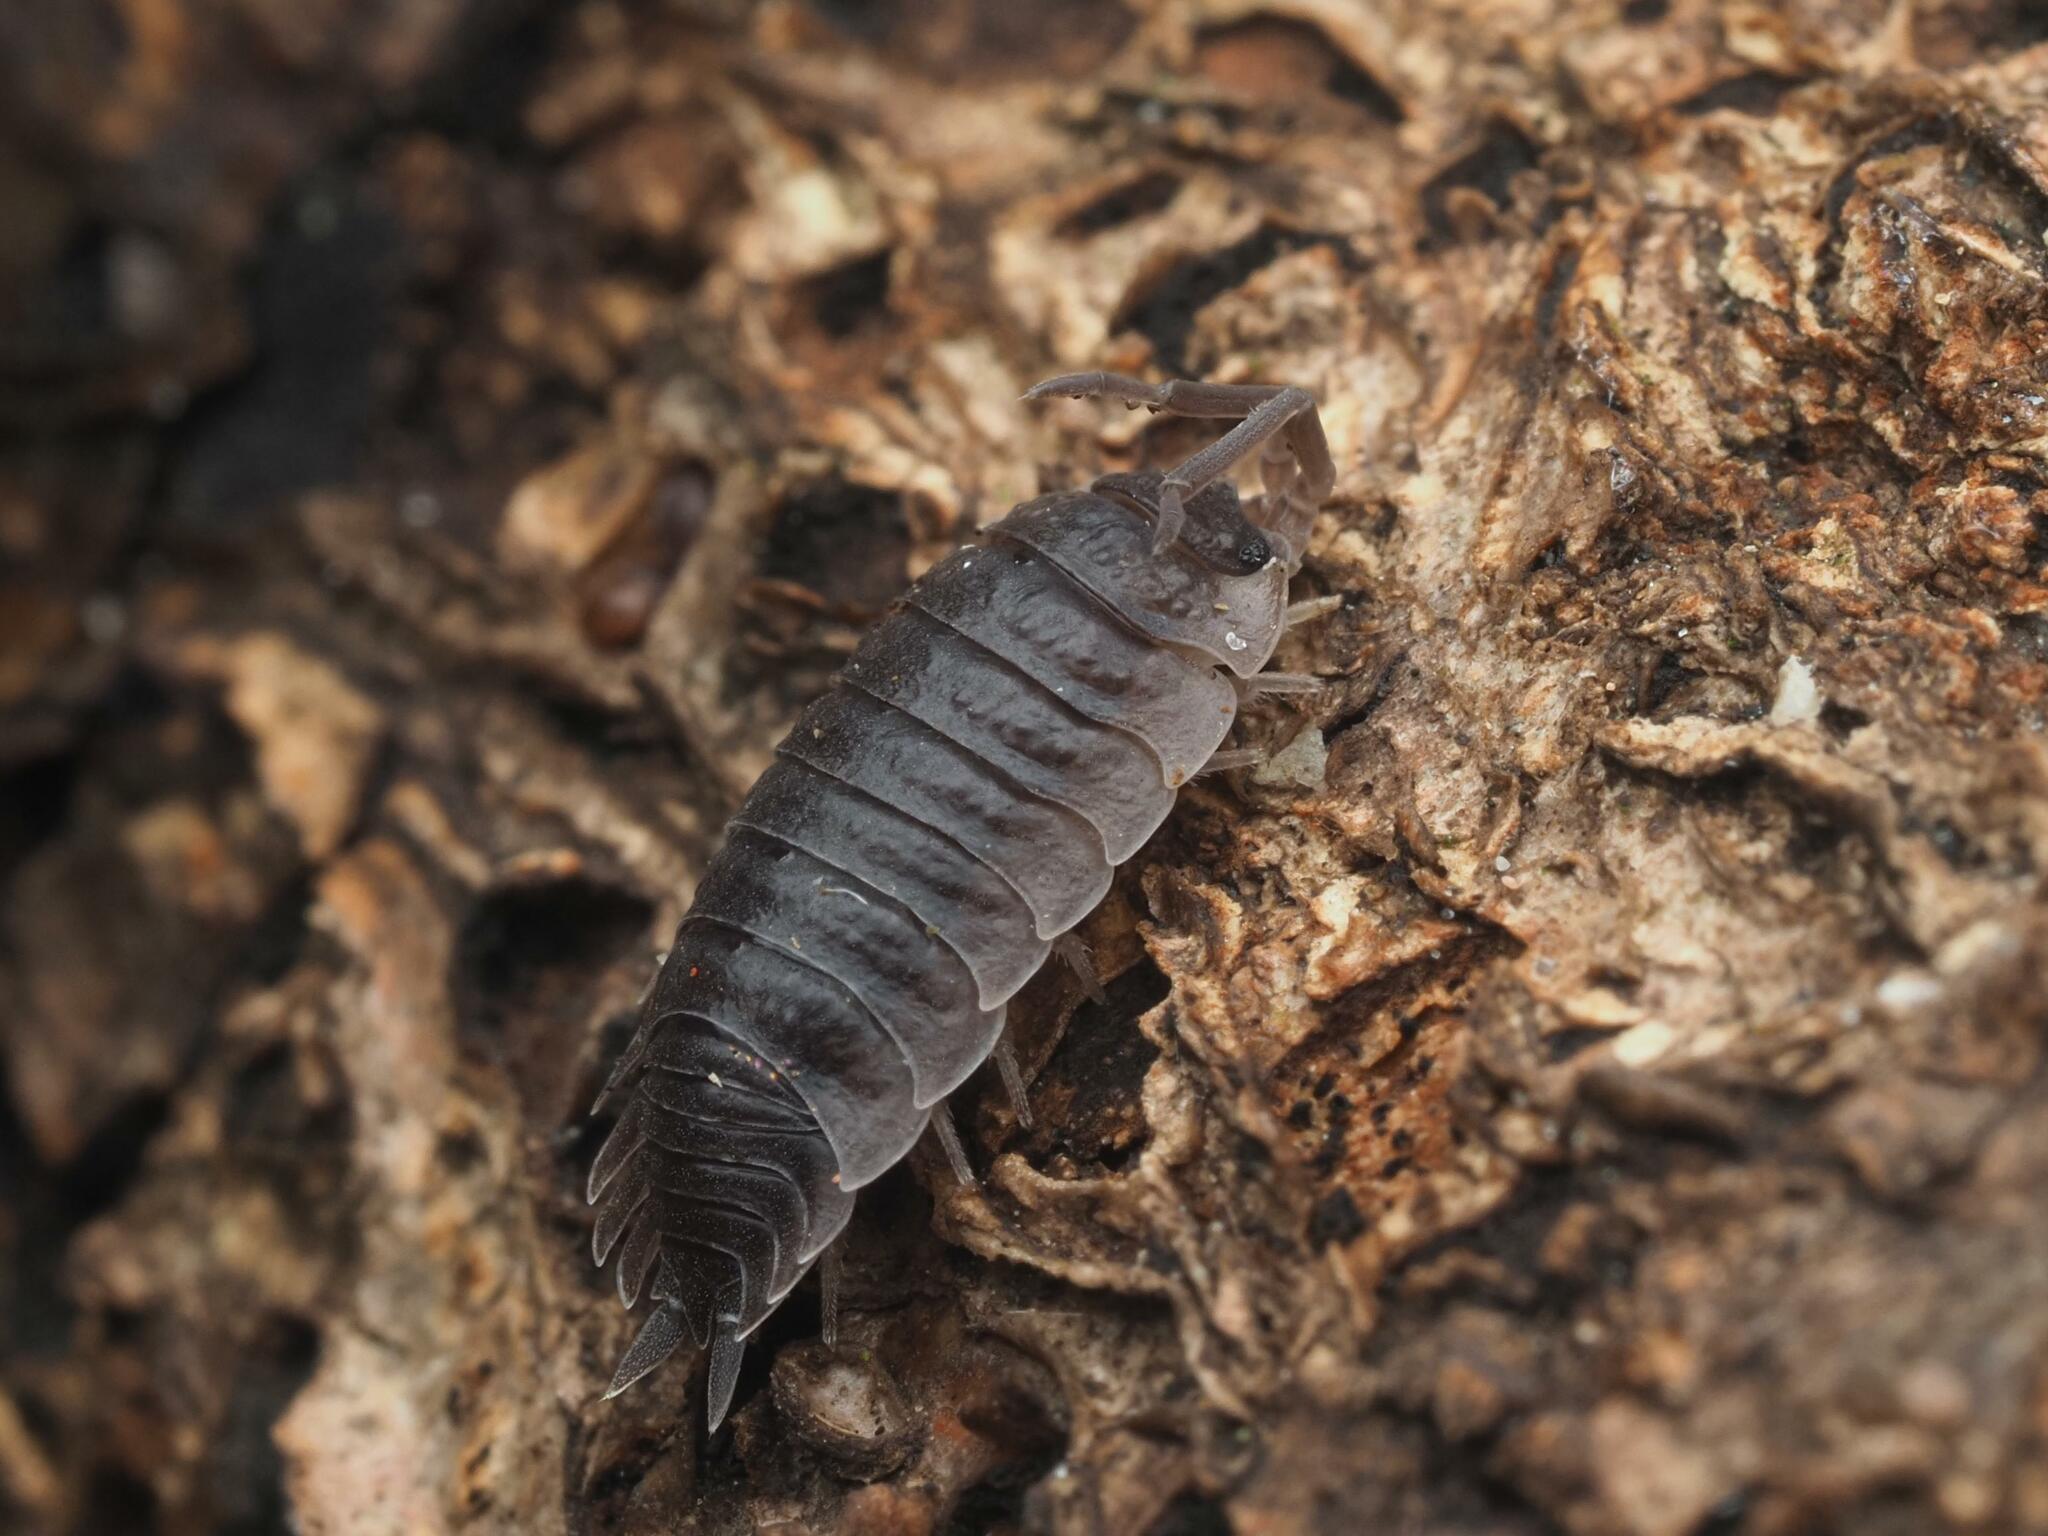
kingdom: Animalia
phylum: Arthropoda
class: Malacostraca
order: Isopoda
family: Porcellionidae
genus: Porcellio
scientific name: Porcellio scaber
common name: Common rough woodlouse
